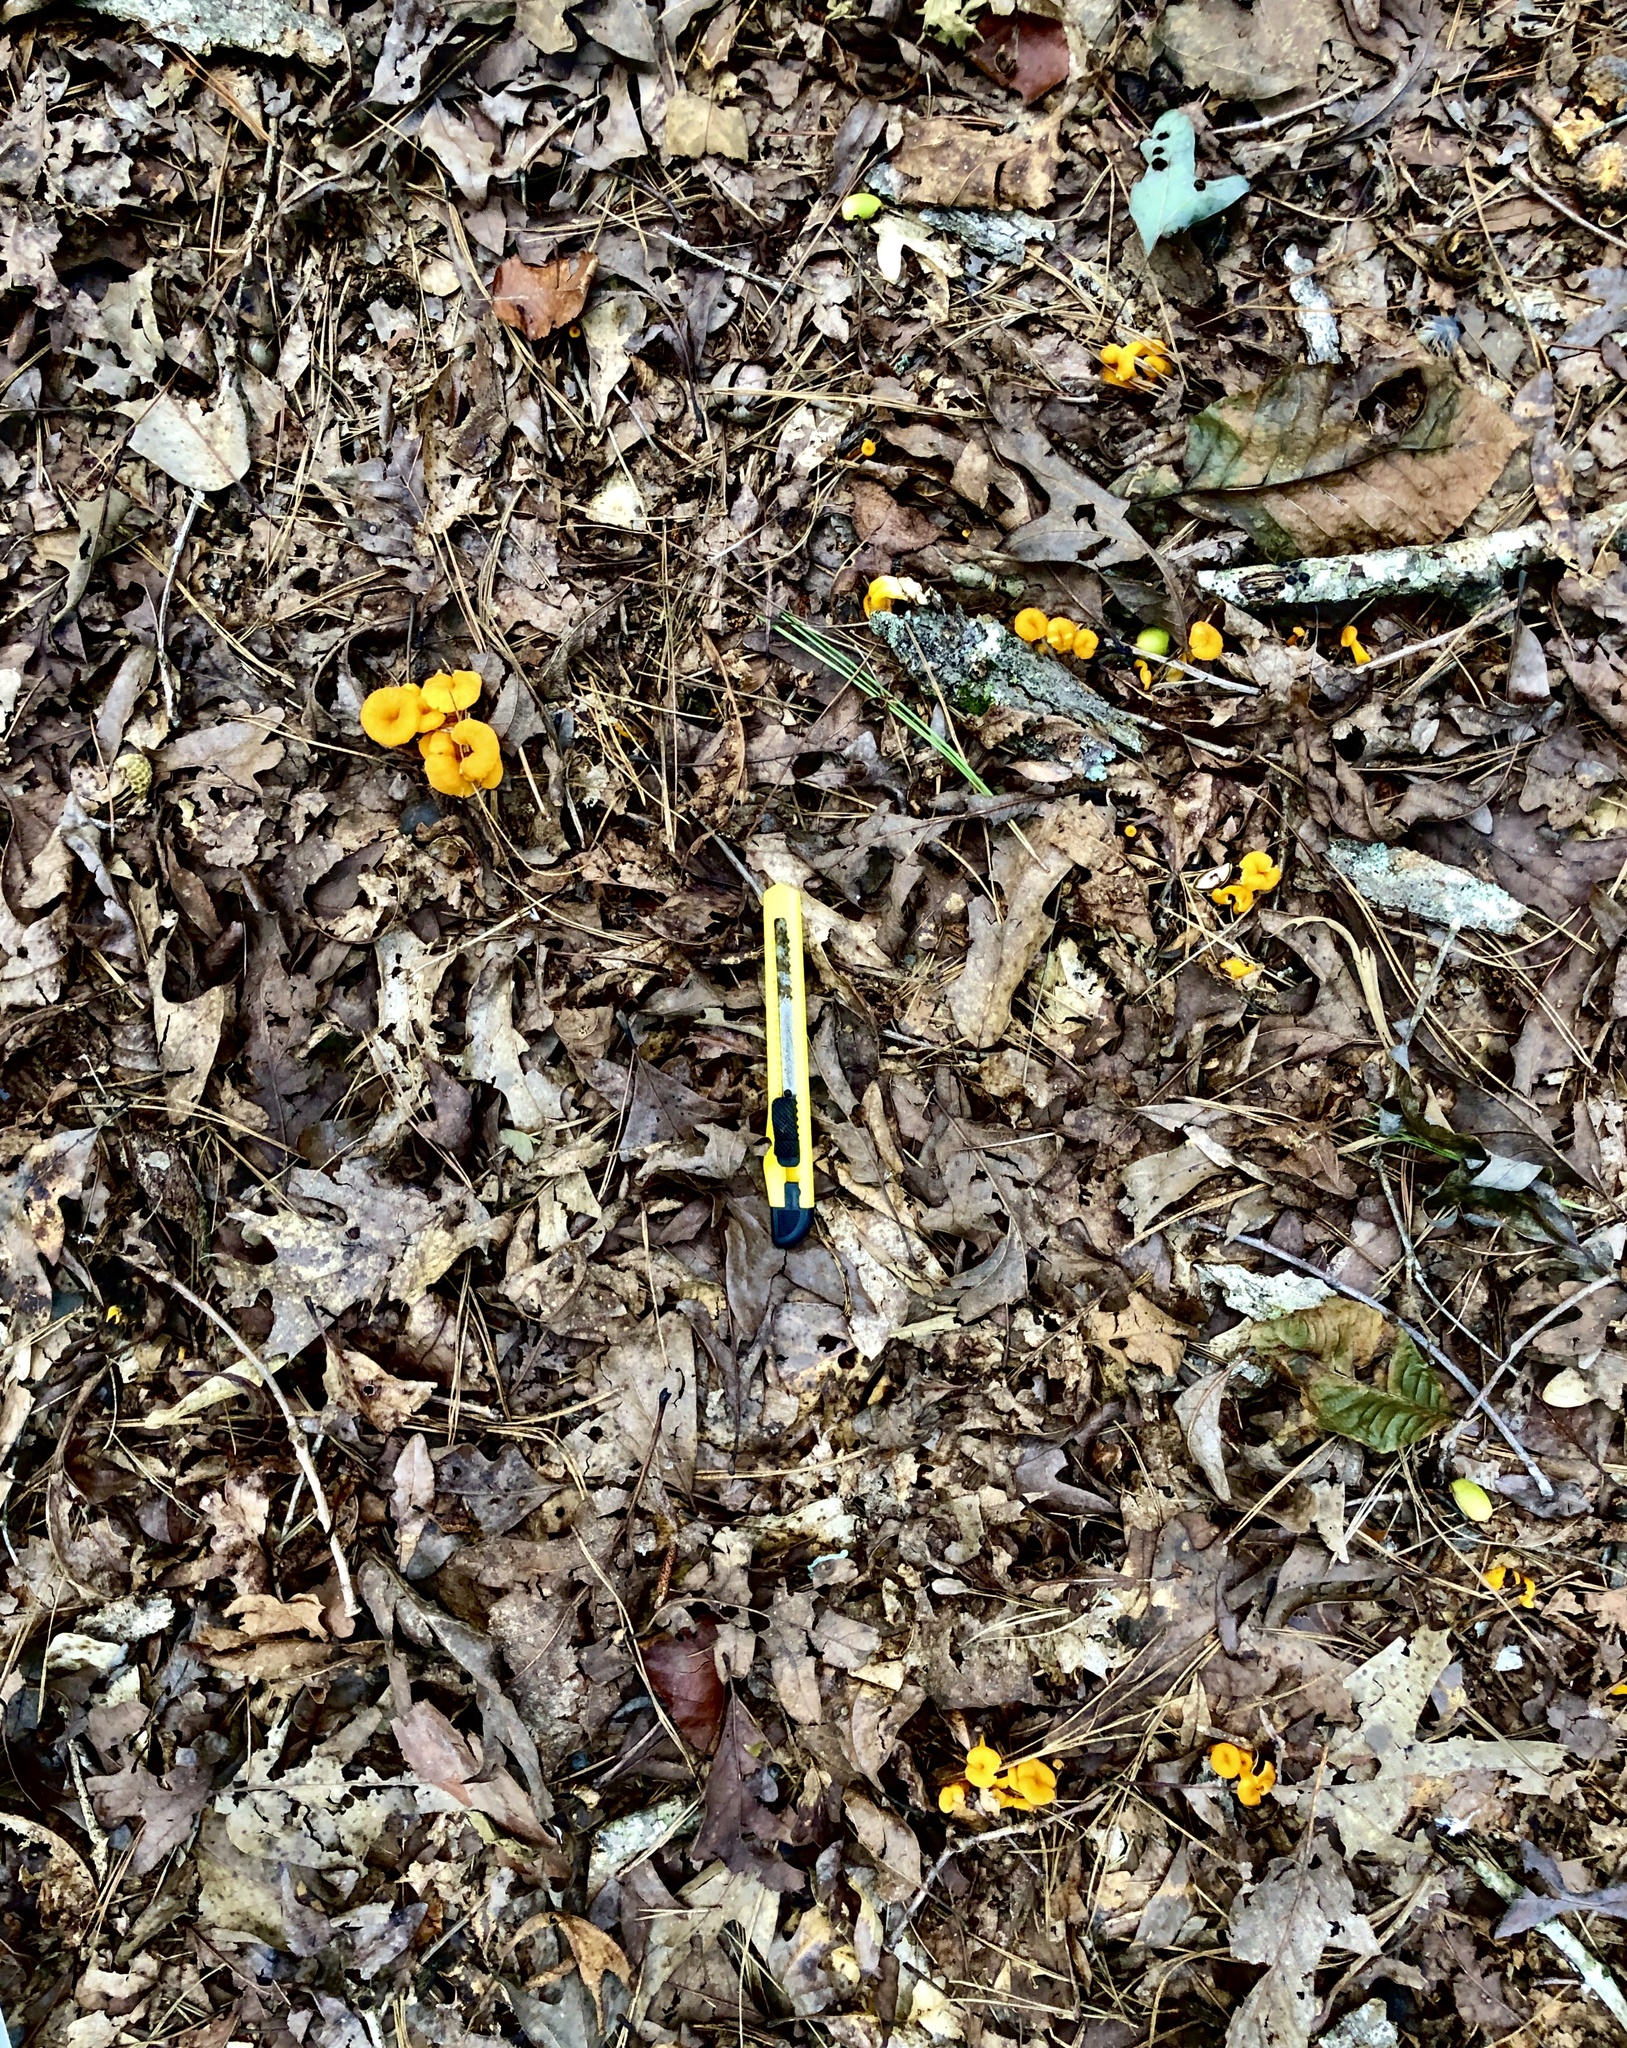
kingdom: Fungi
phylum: Basidiomycota
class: Agaricomycetes
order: Cantharellales
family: Hydnaceae
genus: Craterellus
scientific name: Craterellus ignicolor
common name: Flame chanterelle
